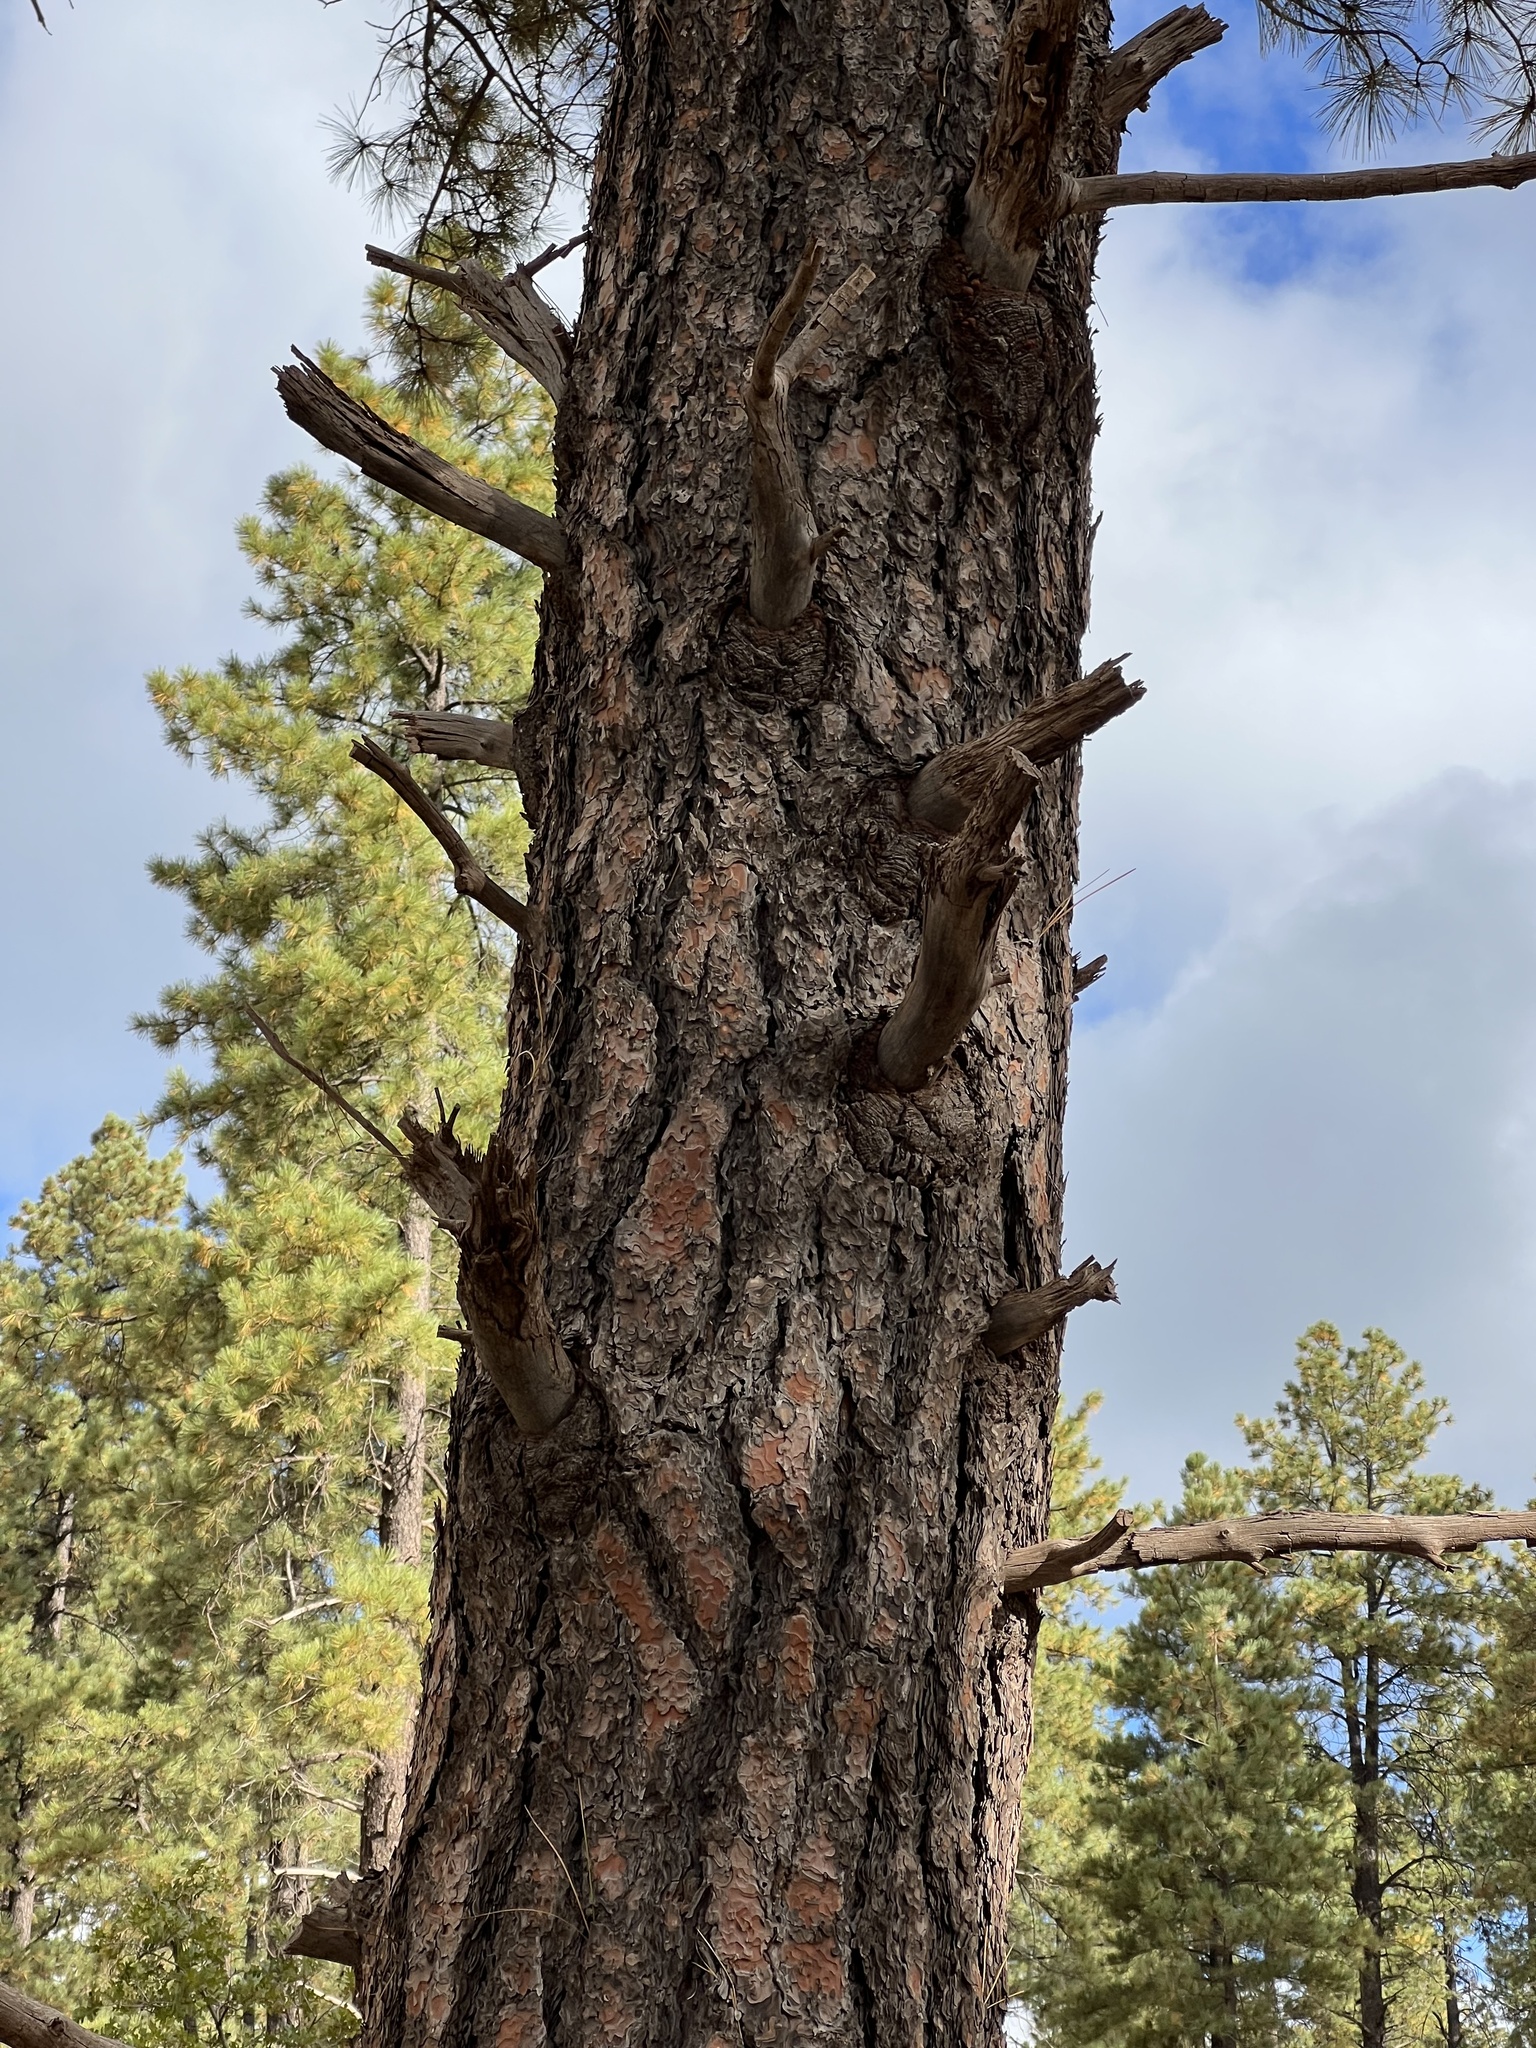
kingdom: Plantae
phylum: Tracheophyta
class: Pinopsida
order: Pinales
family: Pinaceae
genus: Pinus
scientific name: Pinus ponderosa
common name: Western yellow-pine
